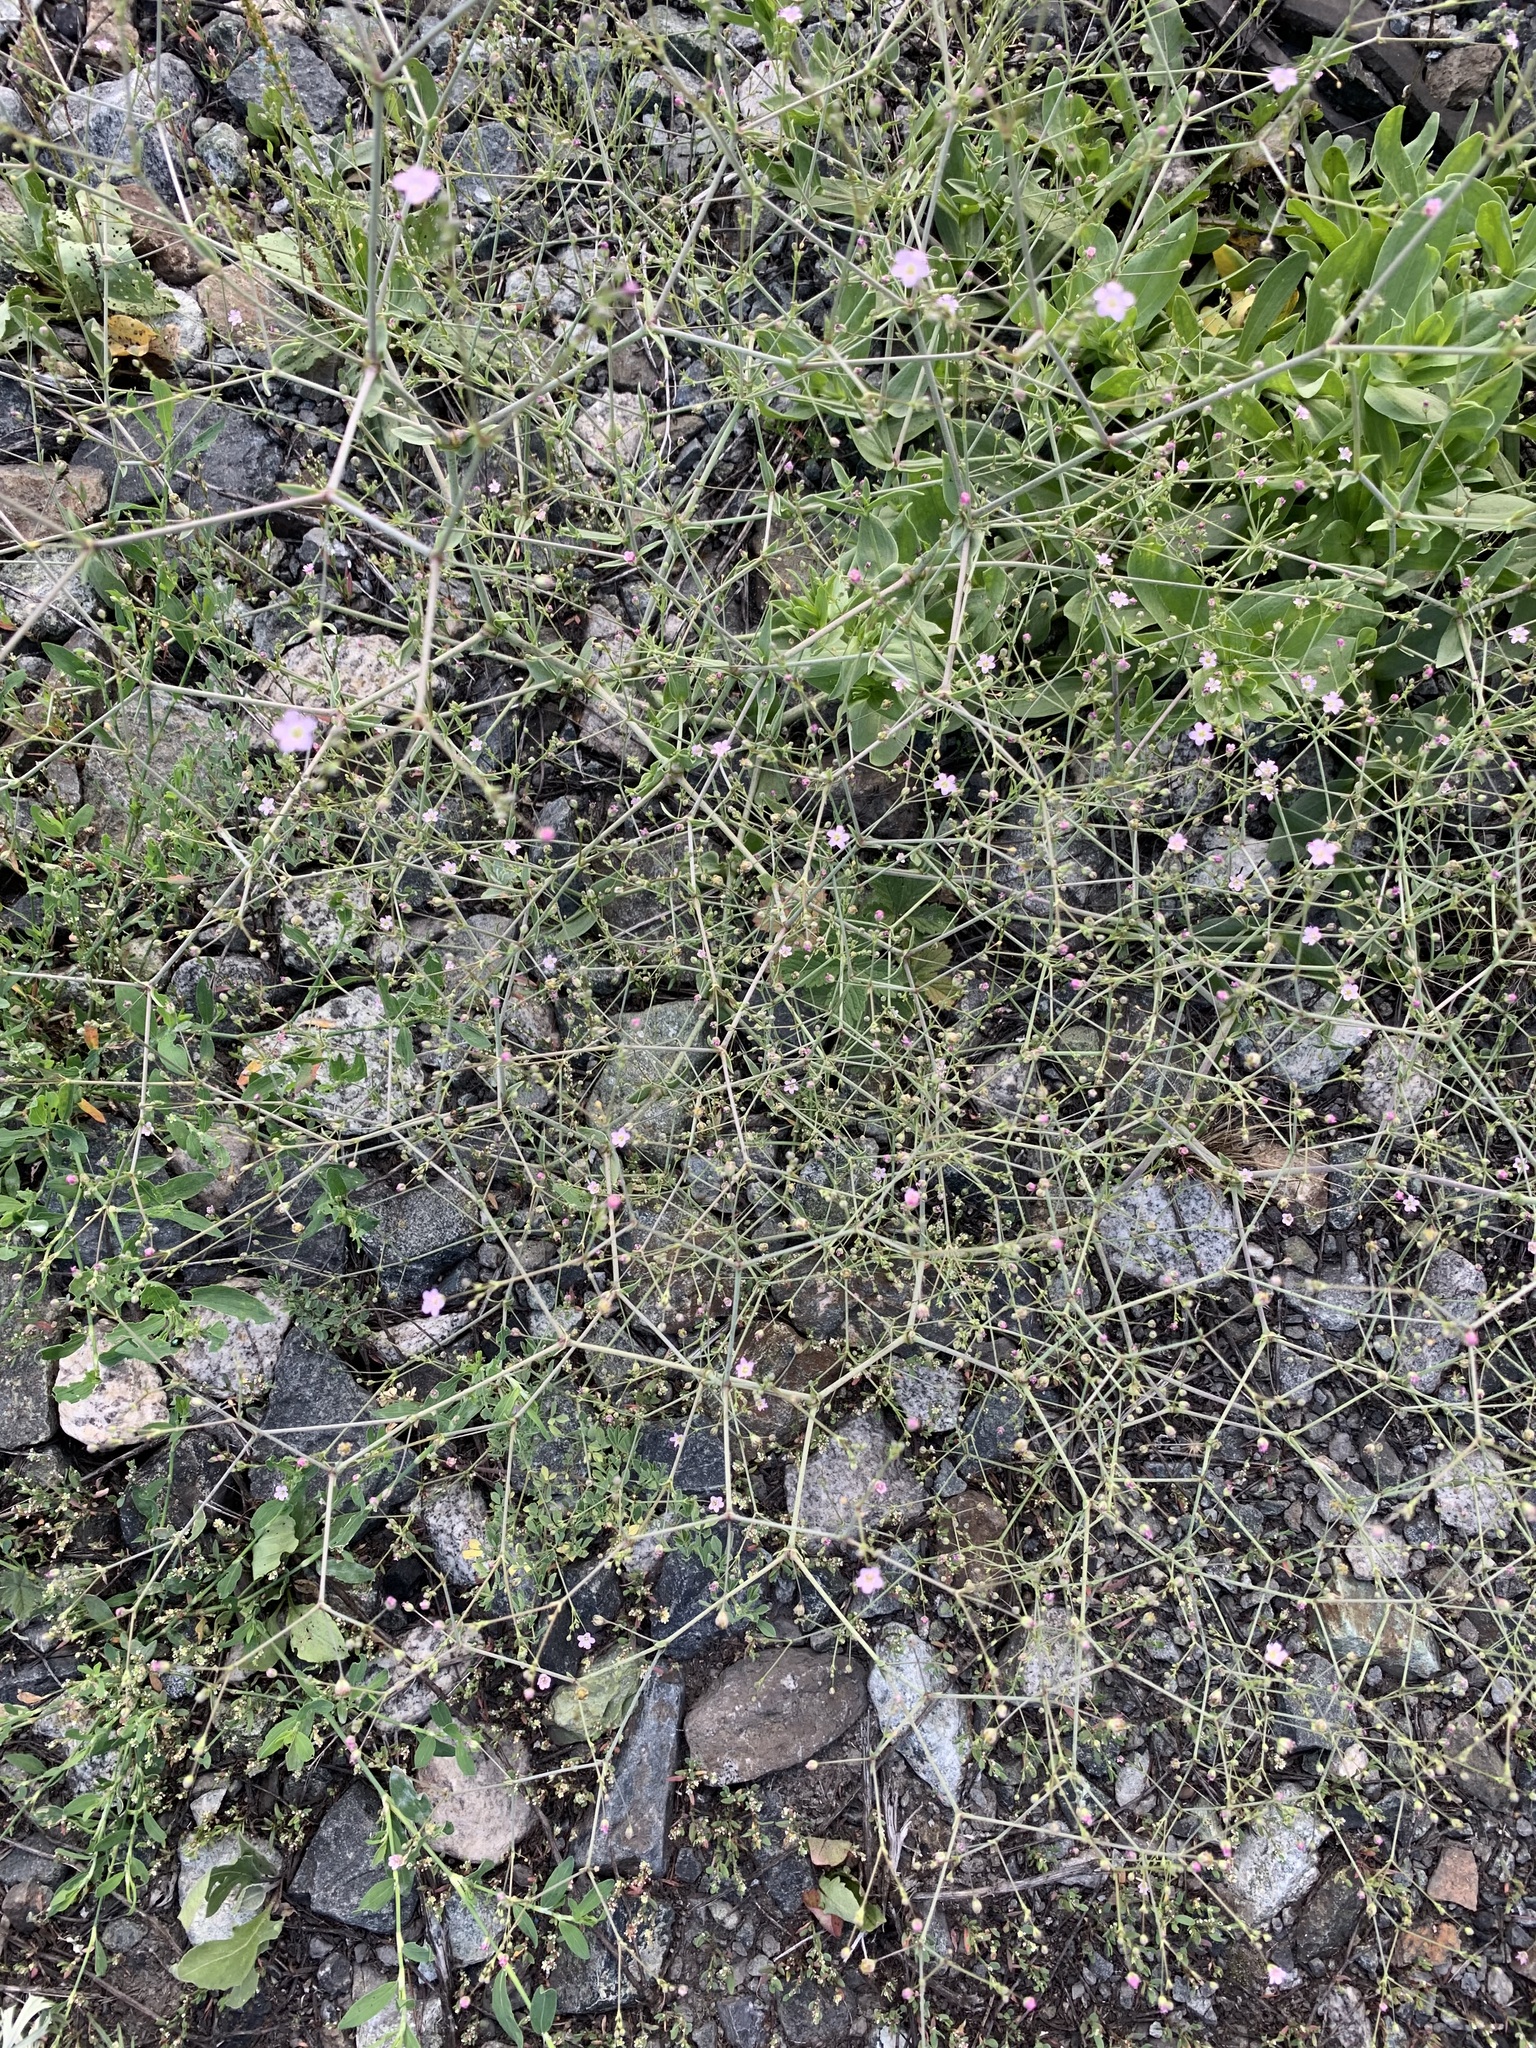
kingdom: Plantae
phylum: Tracheophyta
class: Magnoliopsida
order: Caryophyllales
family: Caryophyllaceae
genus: Gypsophila
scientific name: Gypsophila perfoliata
